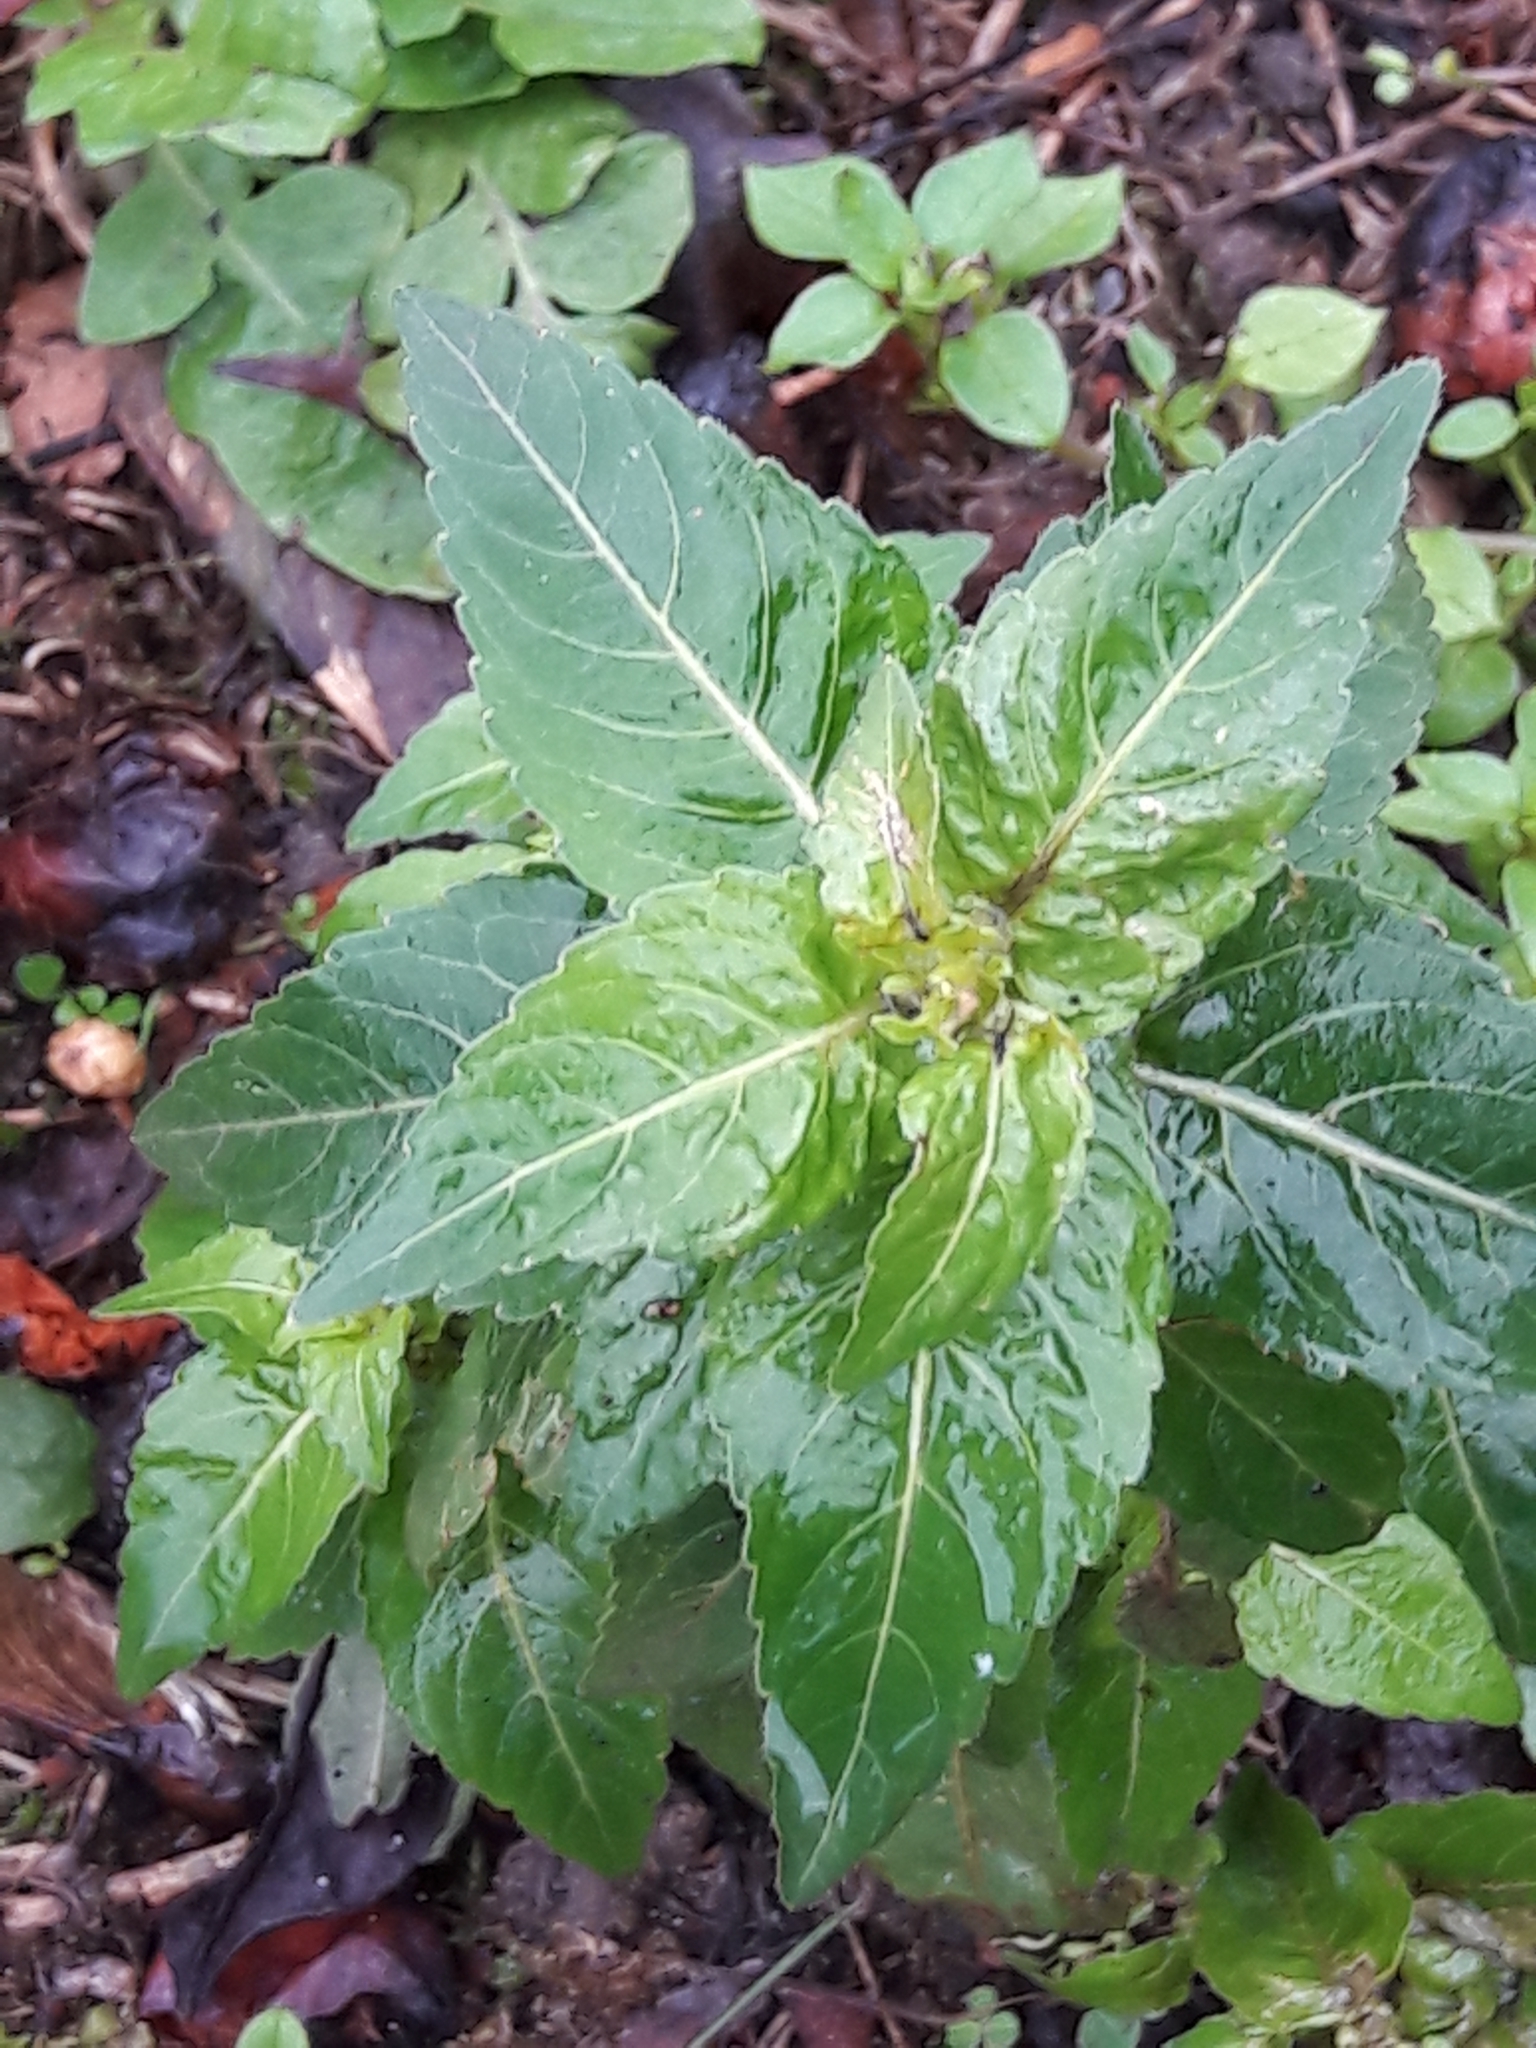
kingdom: Plantae
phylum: Tracheophyta
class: Magnoliopsida
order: Malpighiales
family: Euphorbiaceae
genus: Mercurialis
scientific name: Mercurialis annua
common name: Annual mercury
